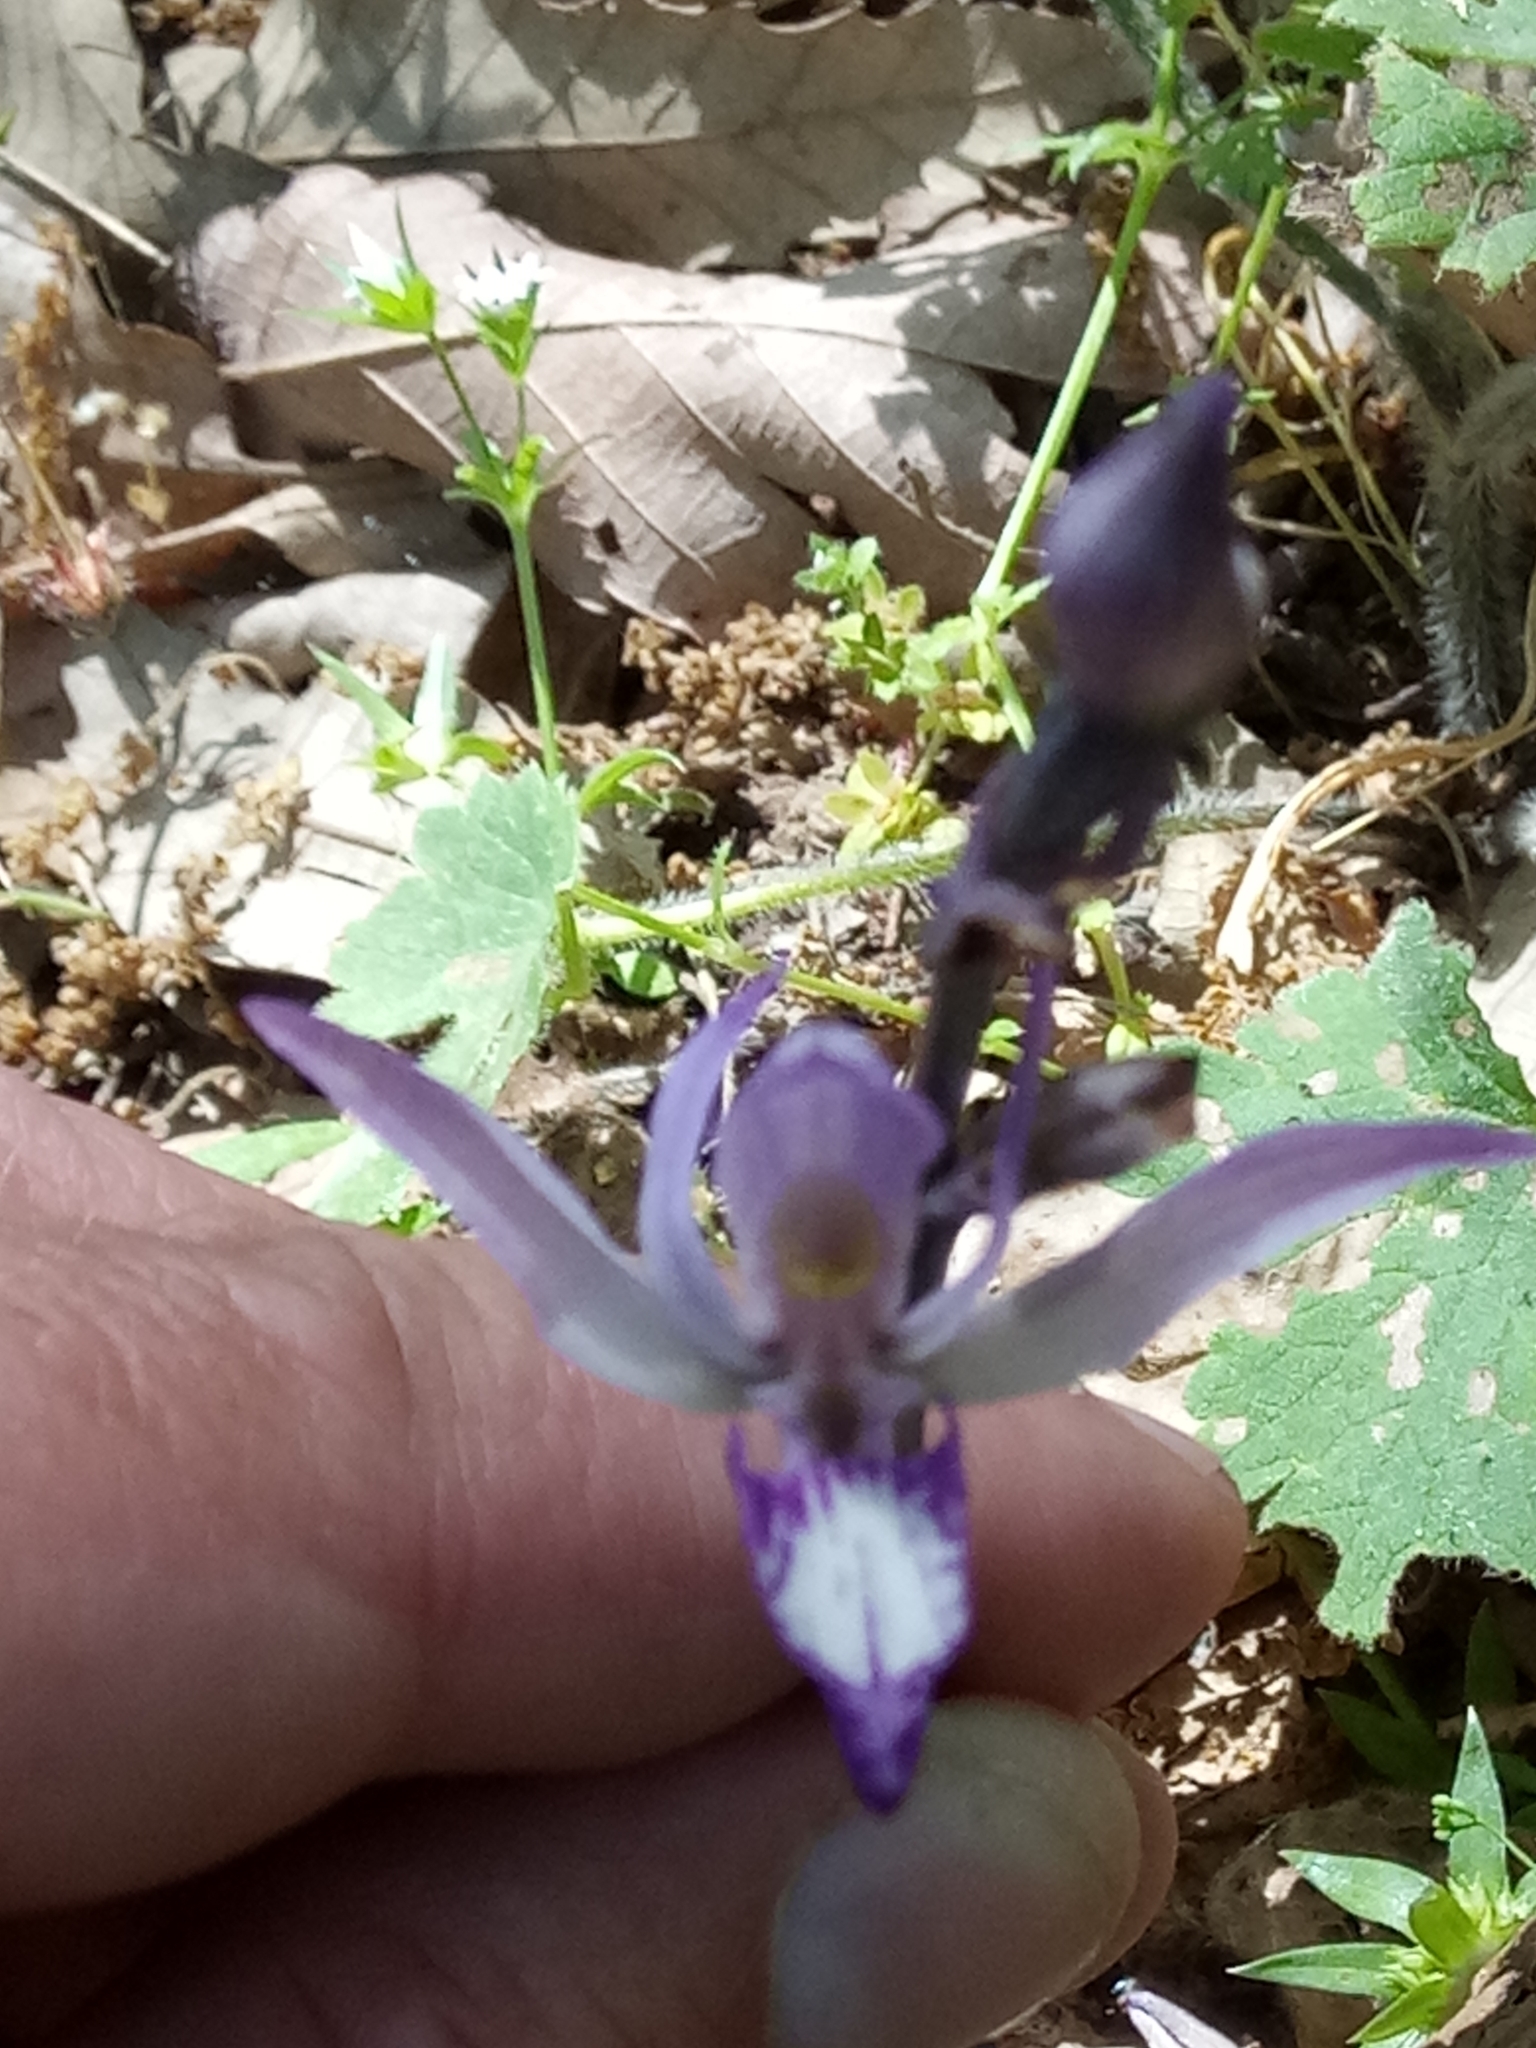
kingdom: Plantae
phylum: Tracheophyta
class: Liliopsida
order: Asparagales
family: Orchidaceae
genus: Limodorum
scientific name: Limodorum abortivum
